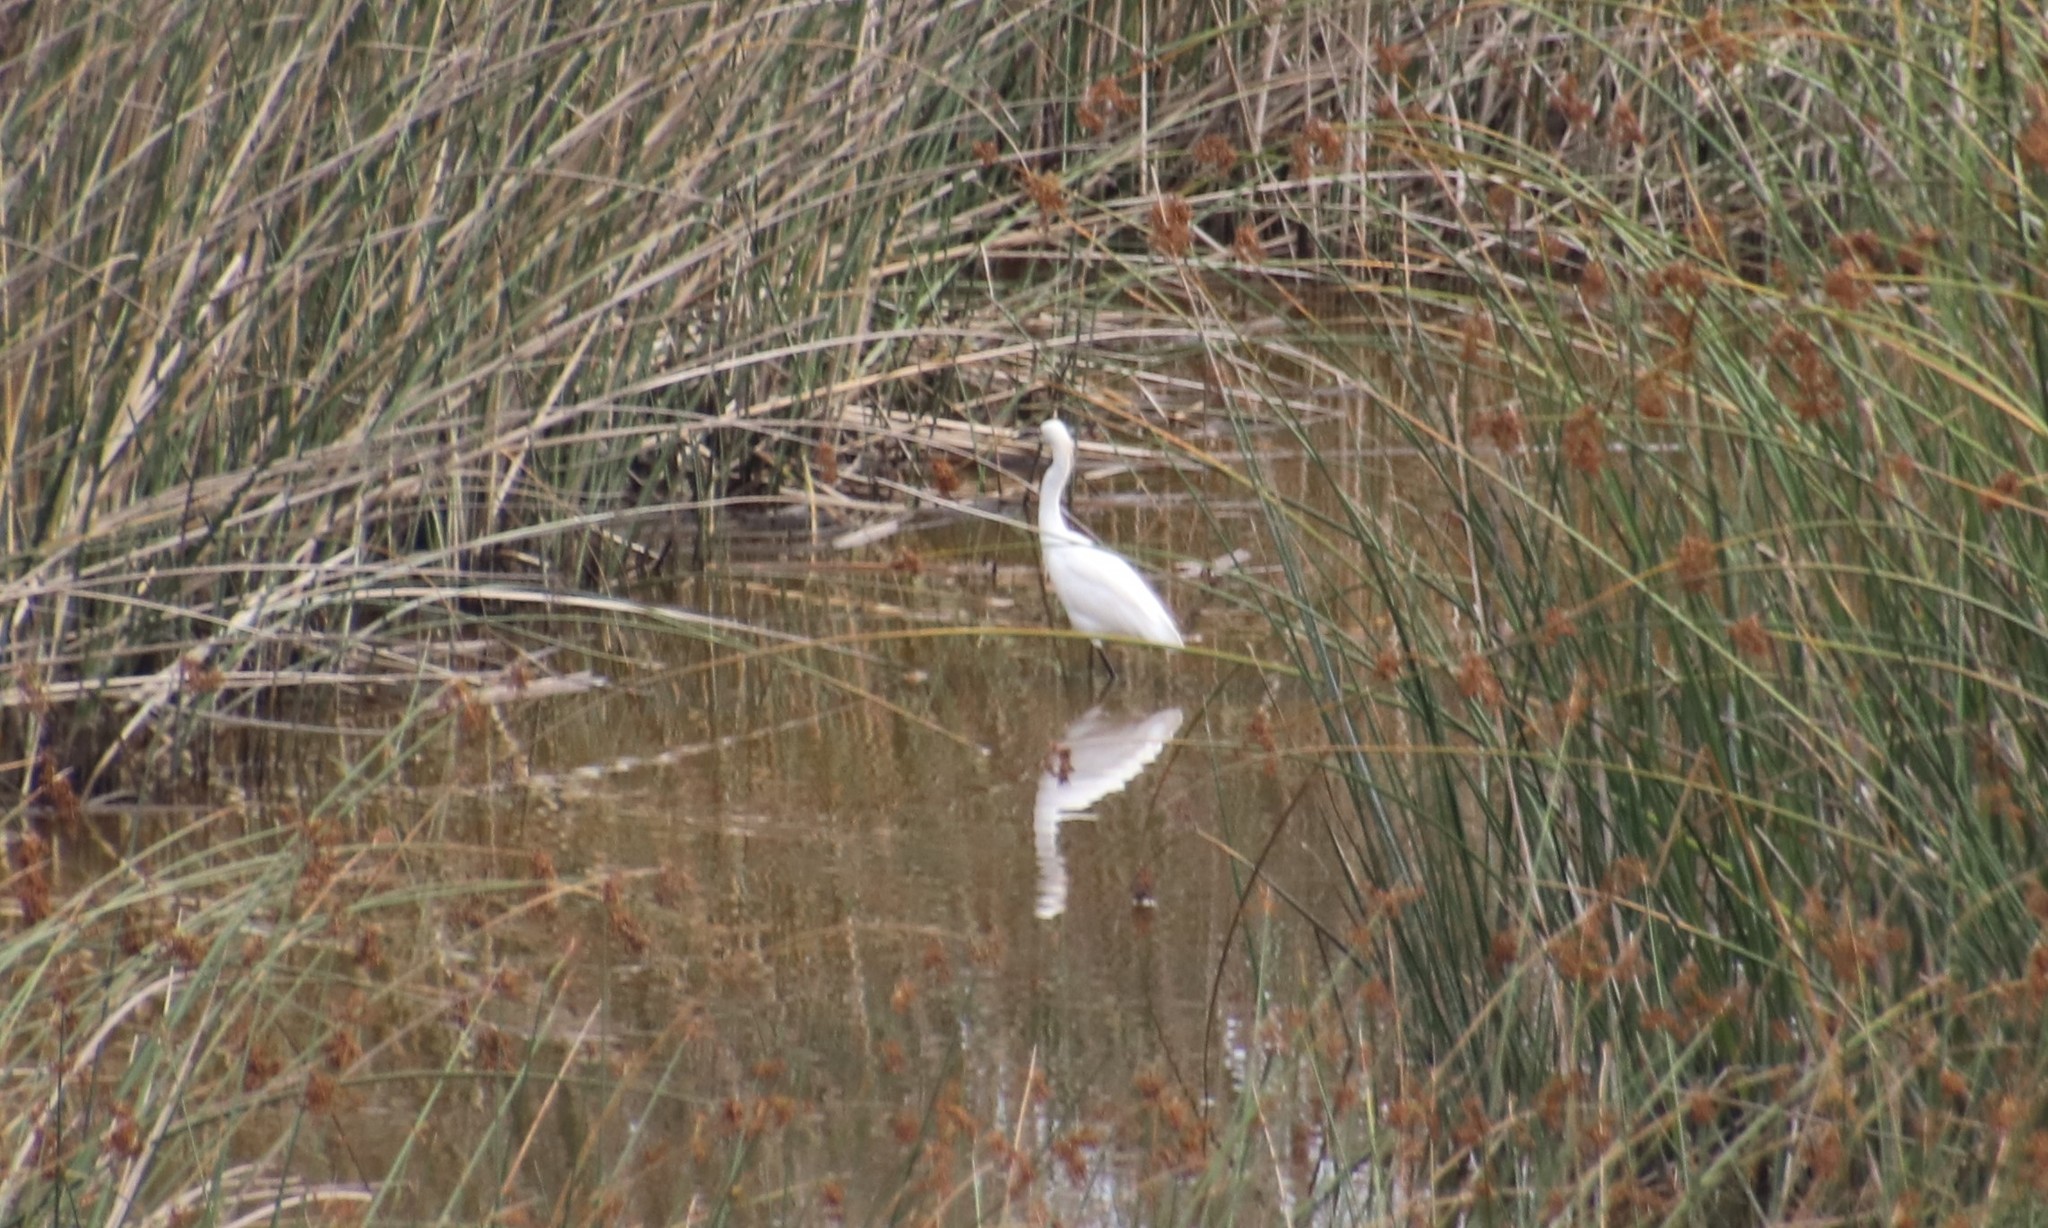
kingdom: Animalia
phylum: Chordata
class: Aves
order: Pelecaniformes
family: Ardeidae
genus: Egretta
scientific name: Egretta thula
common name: Snowy egret
